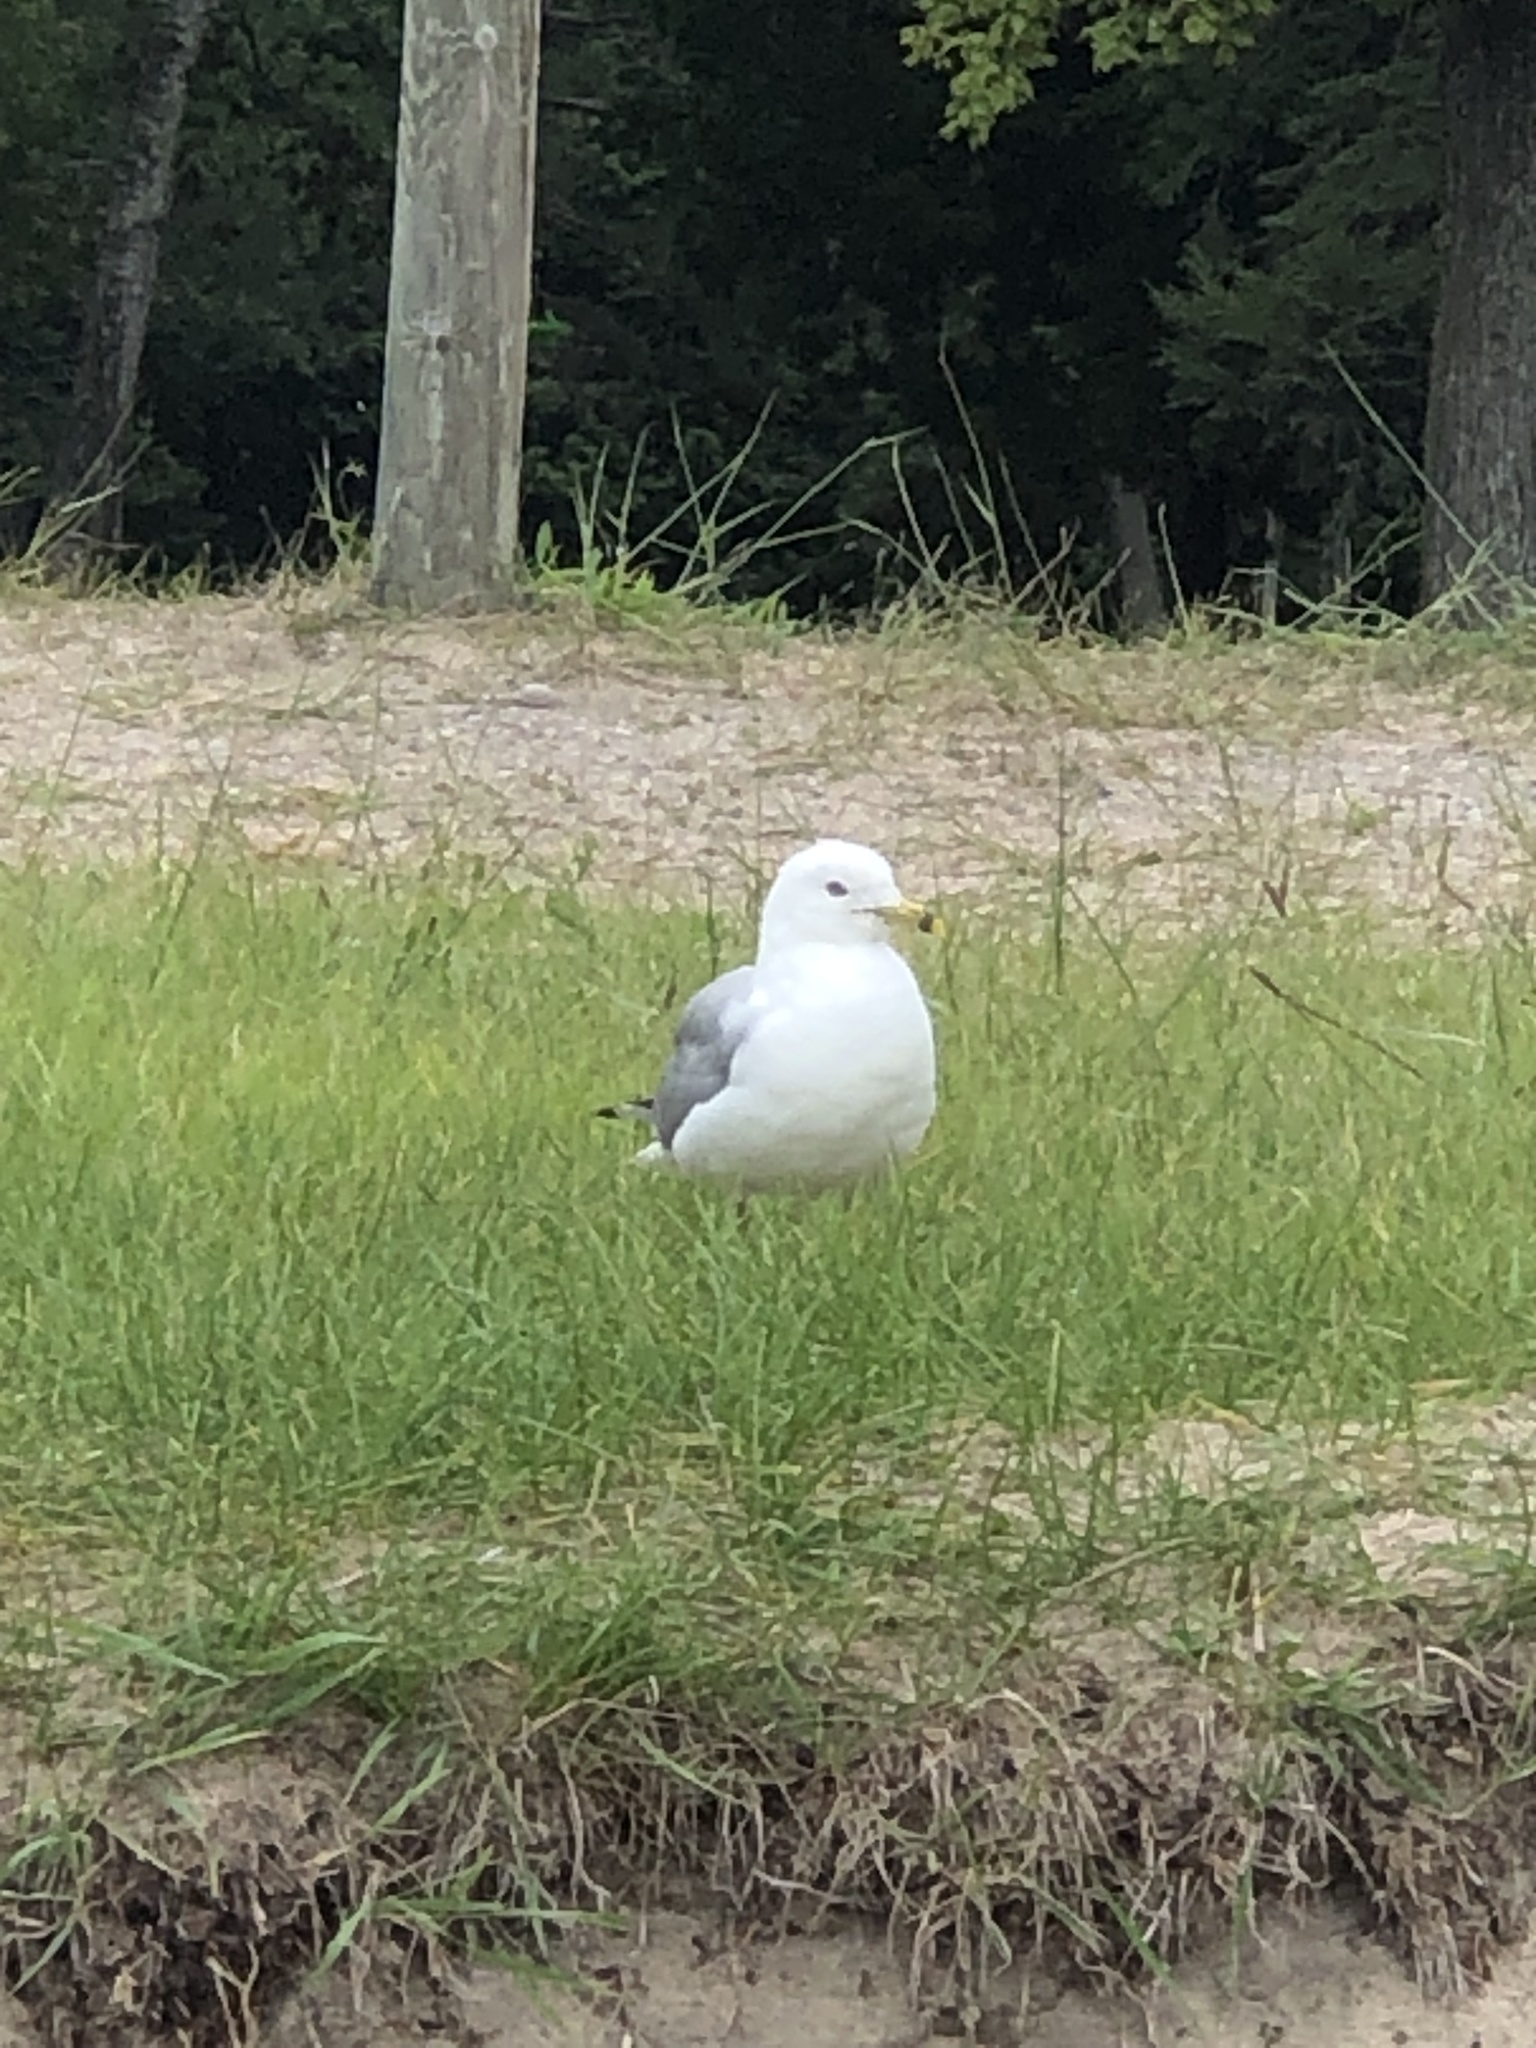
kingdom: Animalia
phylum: Chordata
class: Aves
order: Charadriiformes
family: Laridae
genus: Larus
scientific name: Larus delawarensis
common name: Ring-billed gull
